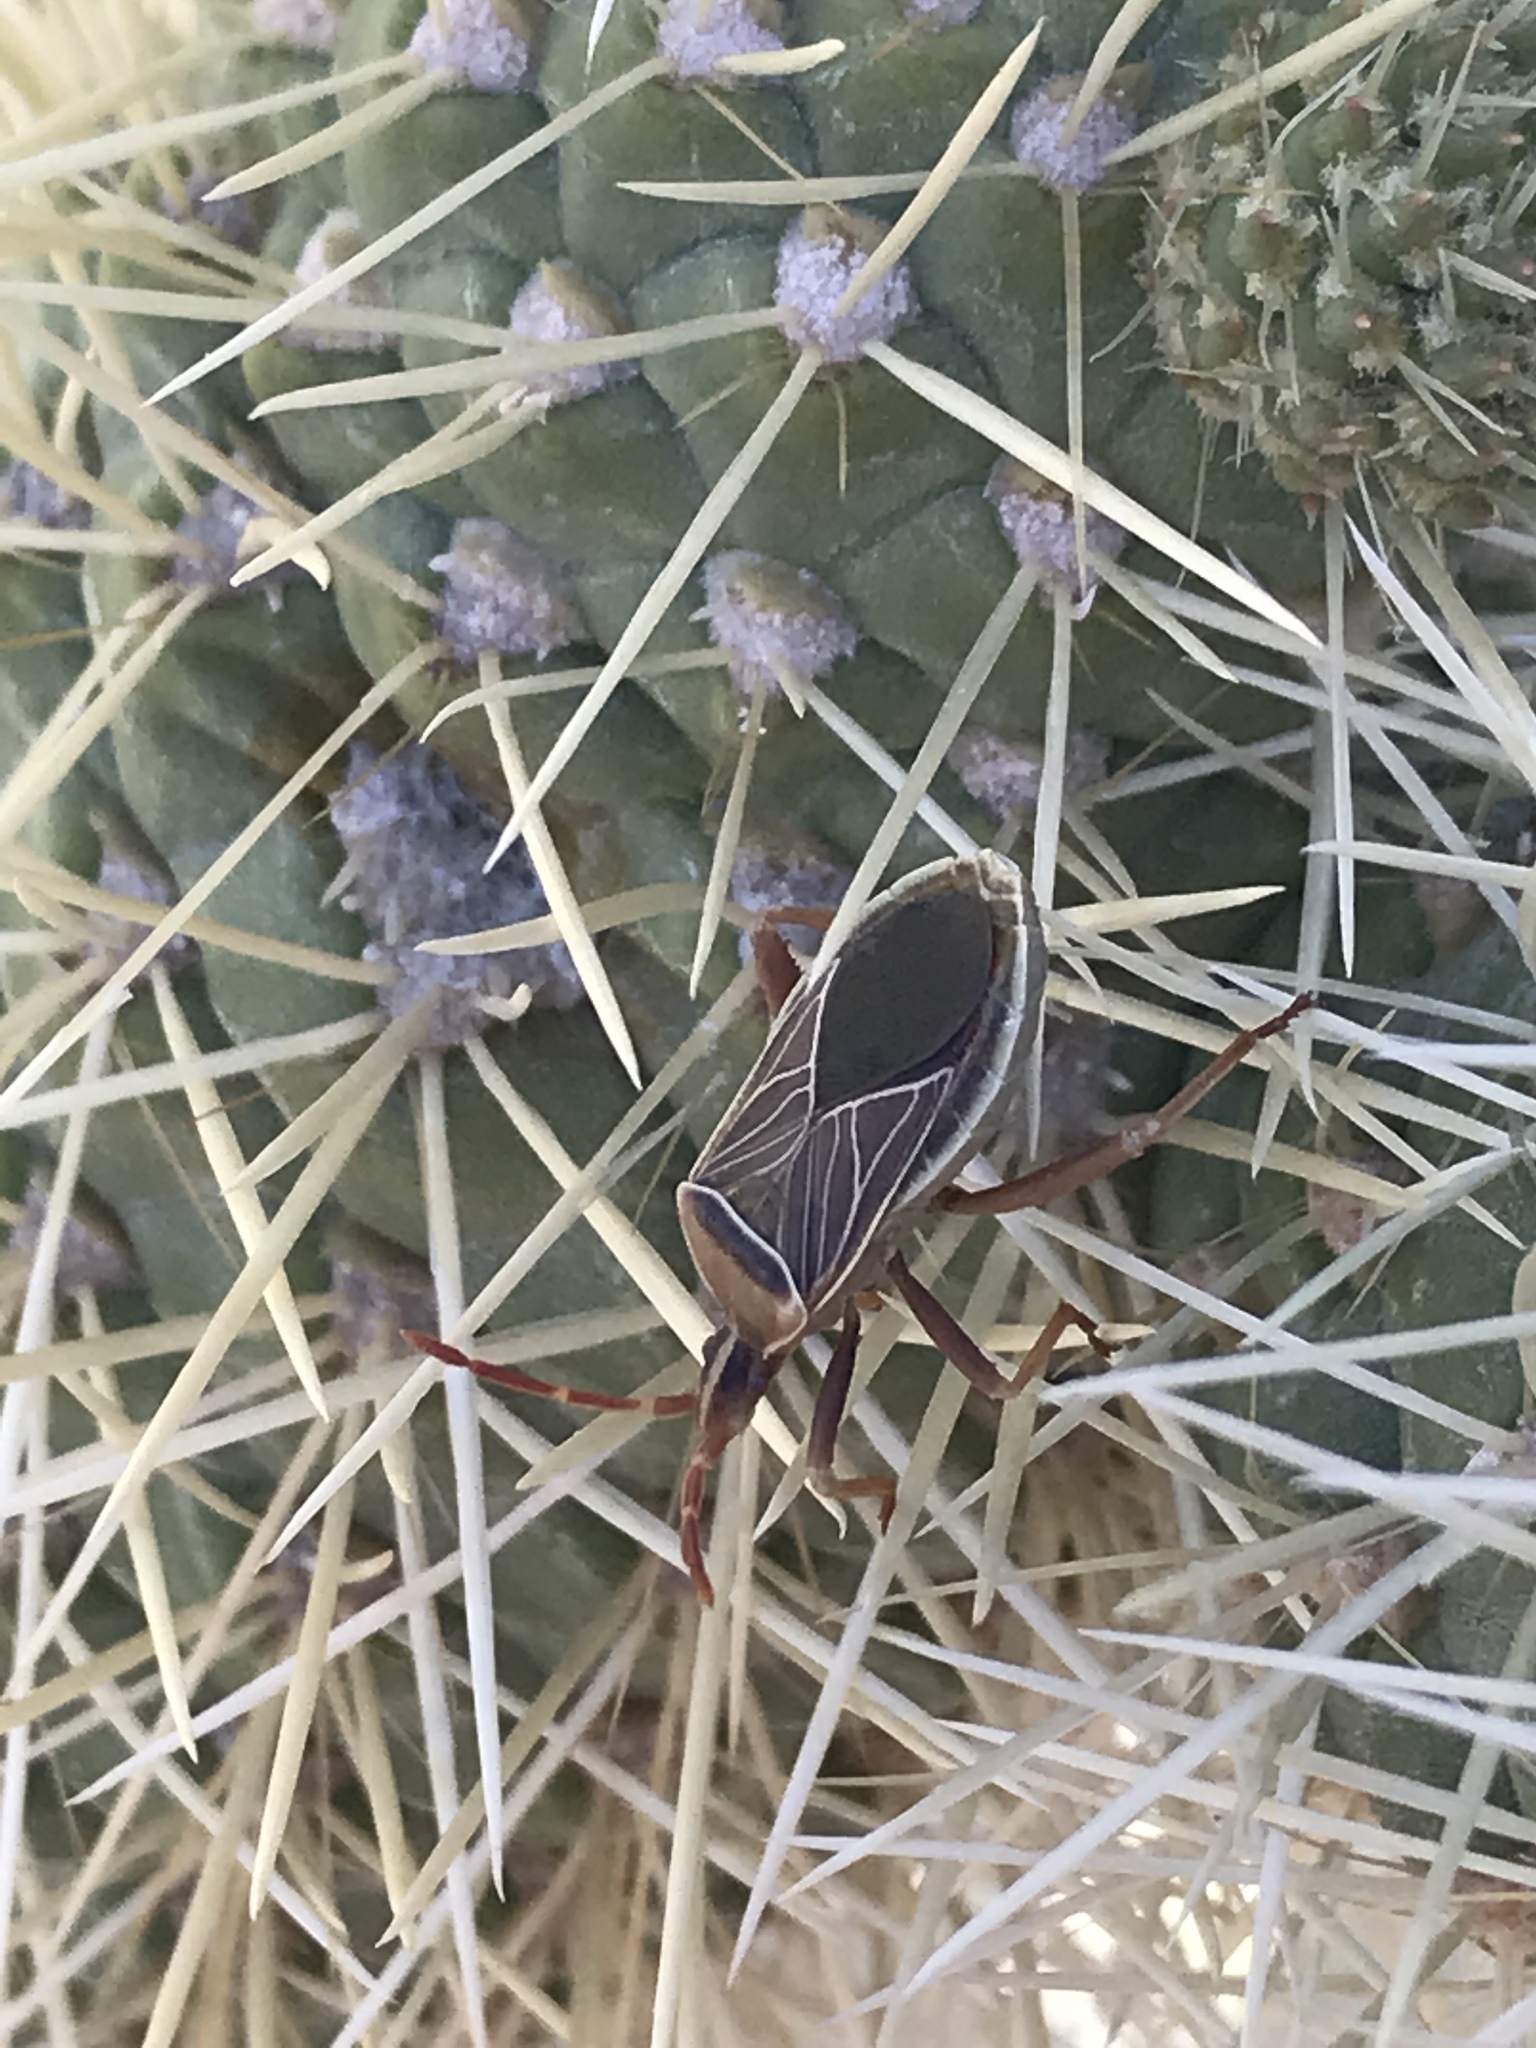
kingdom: Animalia
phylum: Arthropoda
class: Insecta
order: Hemiptera
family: Coreidae
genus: Chelinidea
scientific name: Chelinidea vittiger
